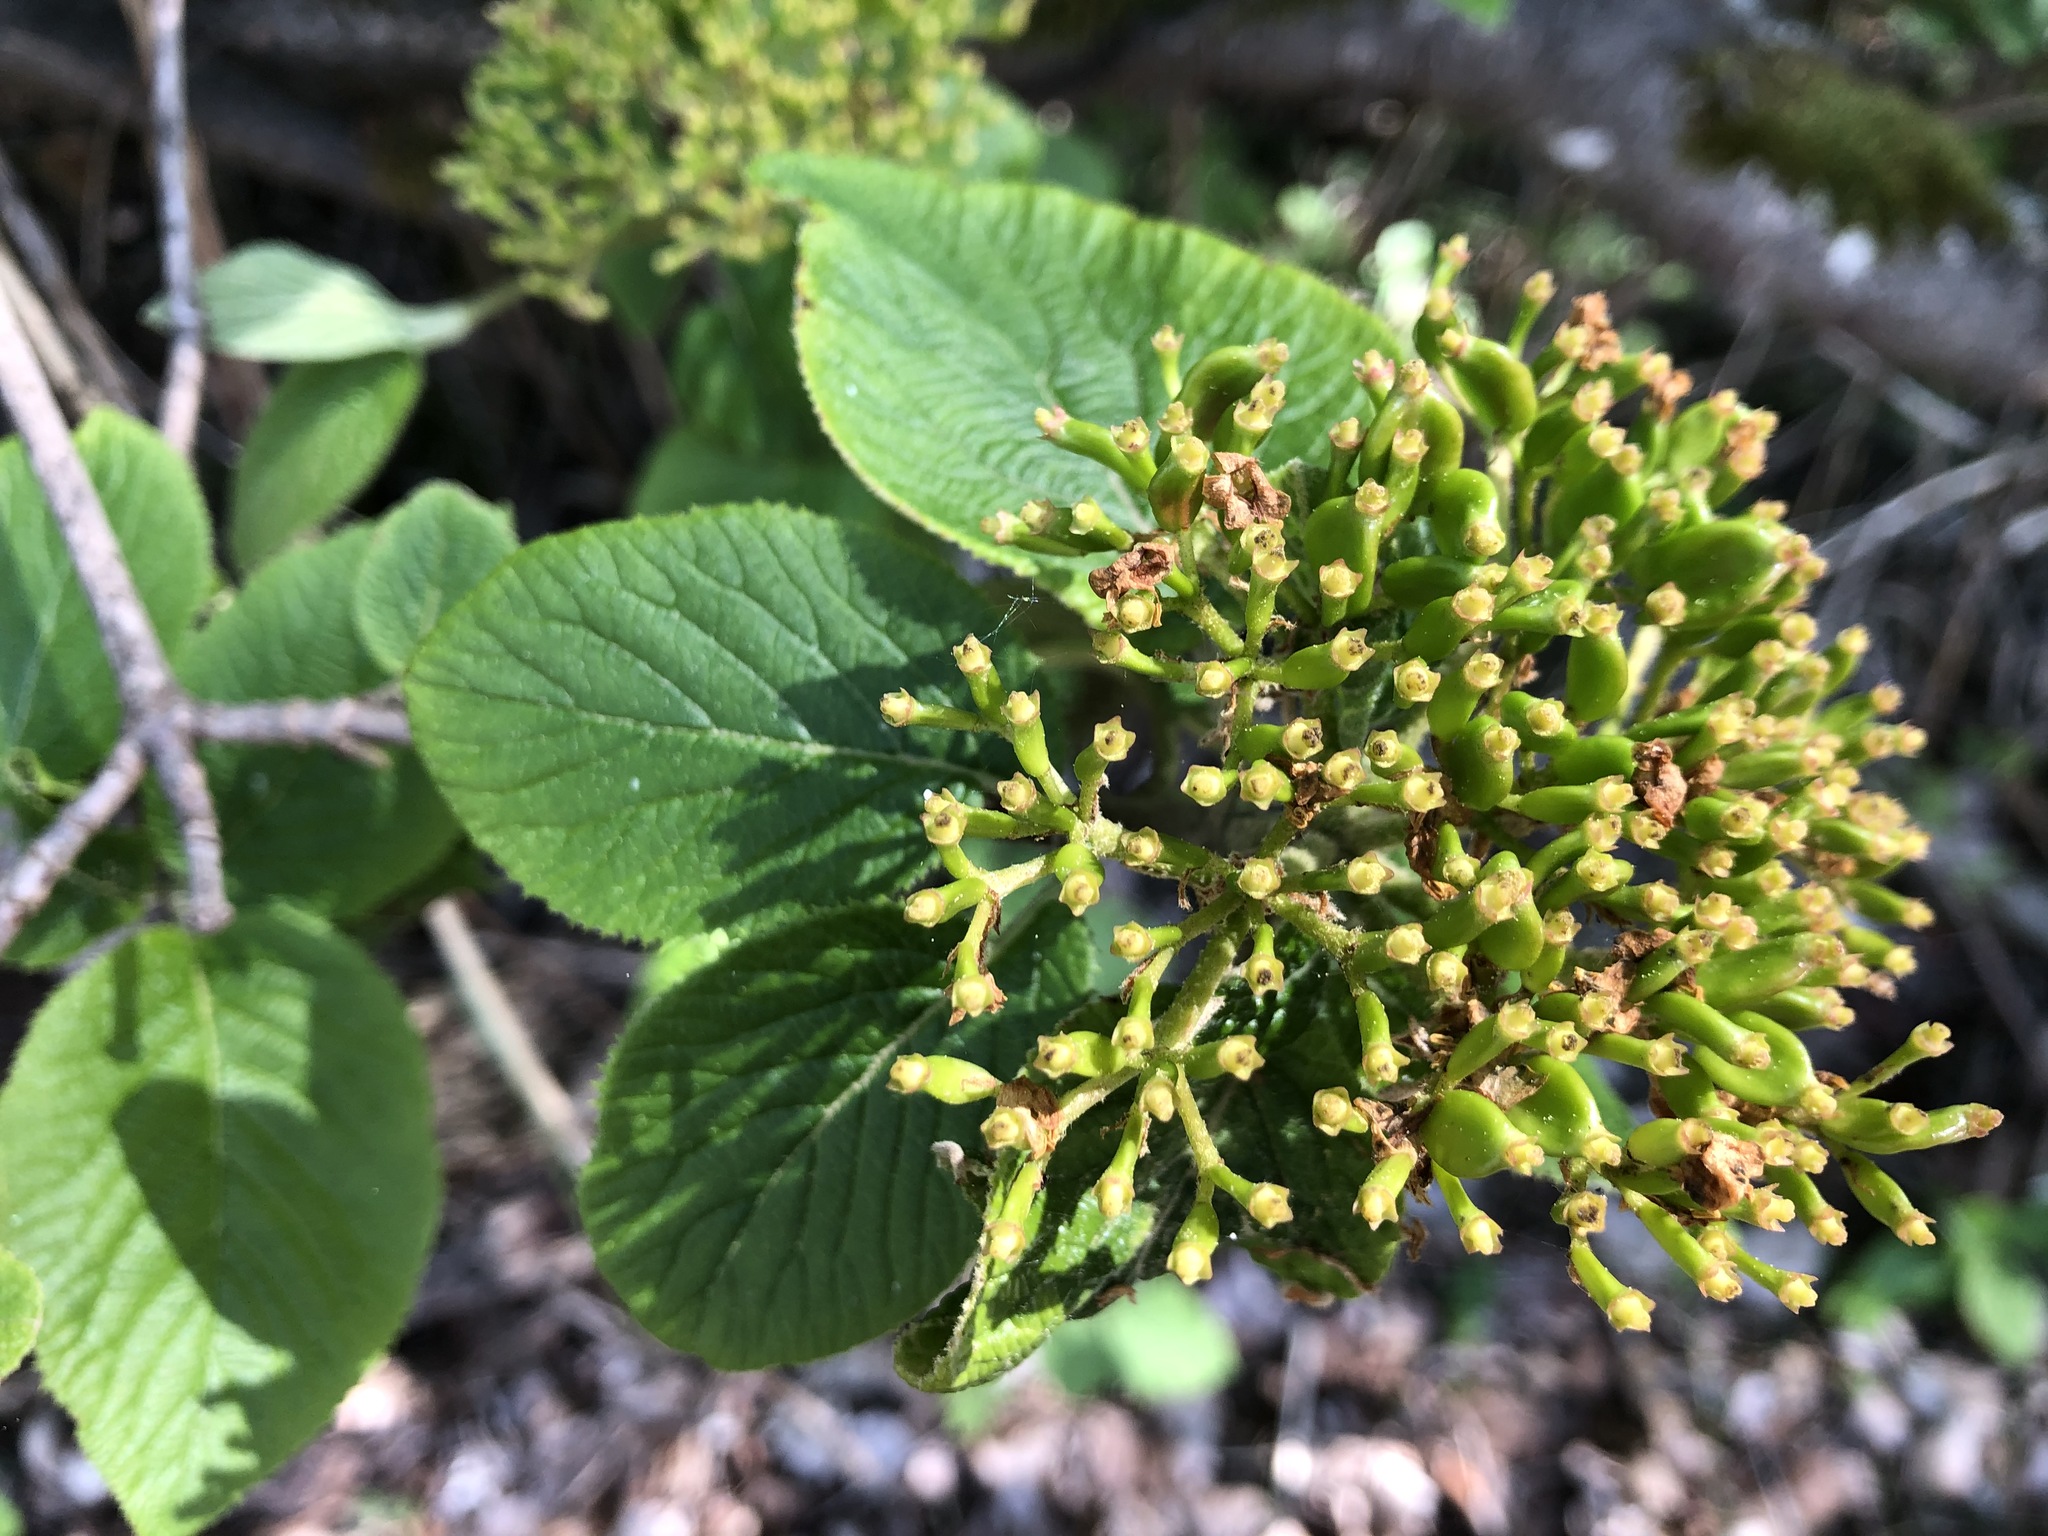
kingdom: Plantae
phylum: Tracheophyta
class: Magnoliopsida
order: Dipsacales
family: Viburnaceae
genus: Viburnum
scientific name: Viburnum lantana
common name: Wayfaring tree
